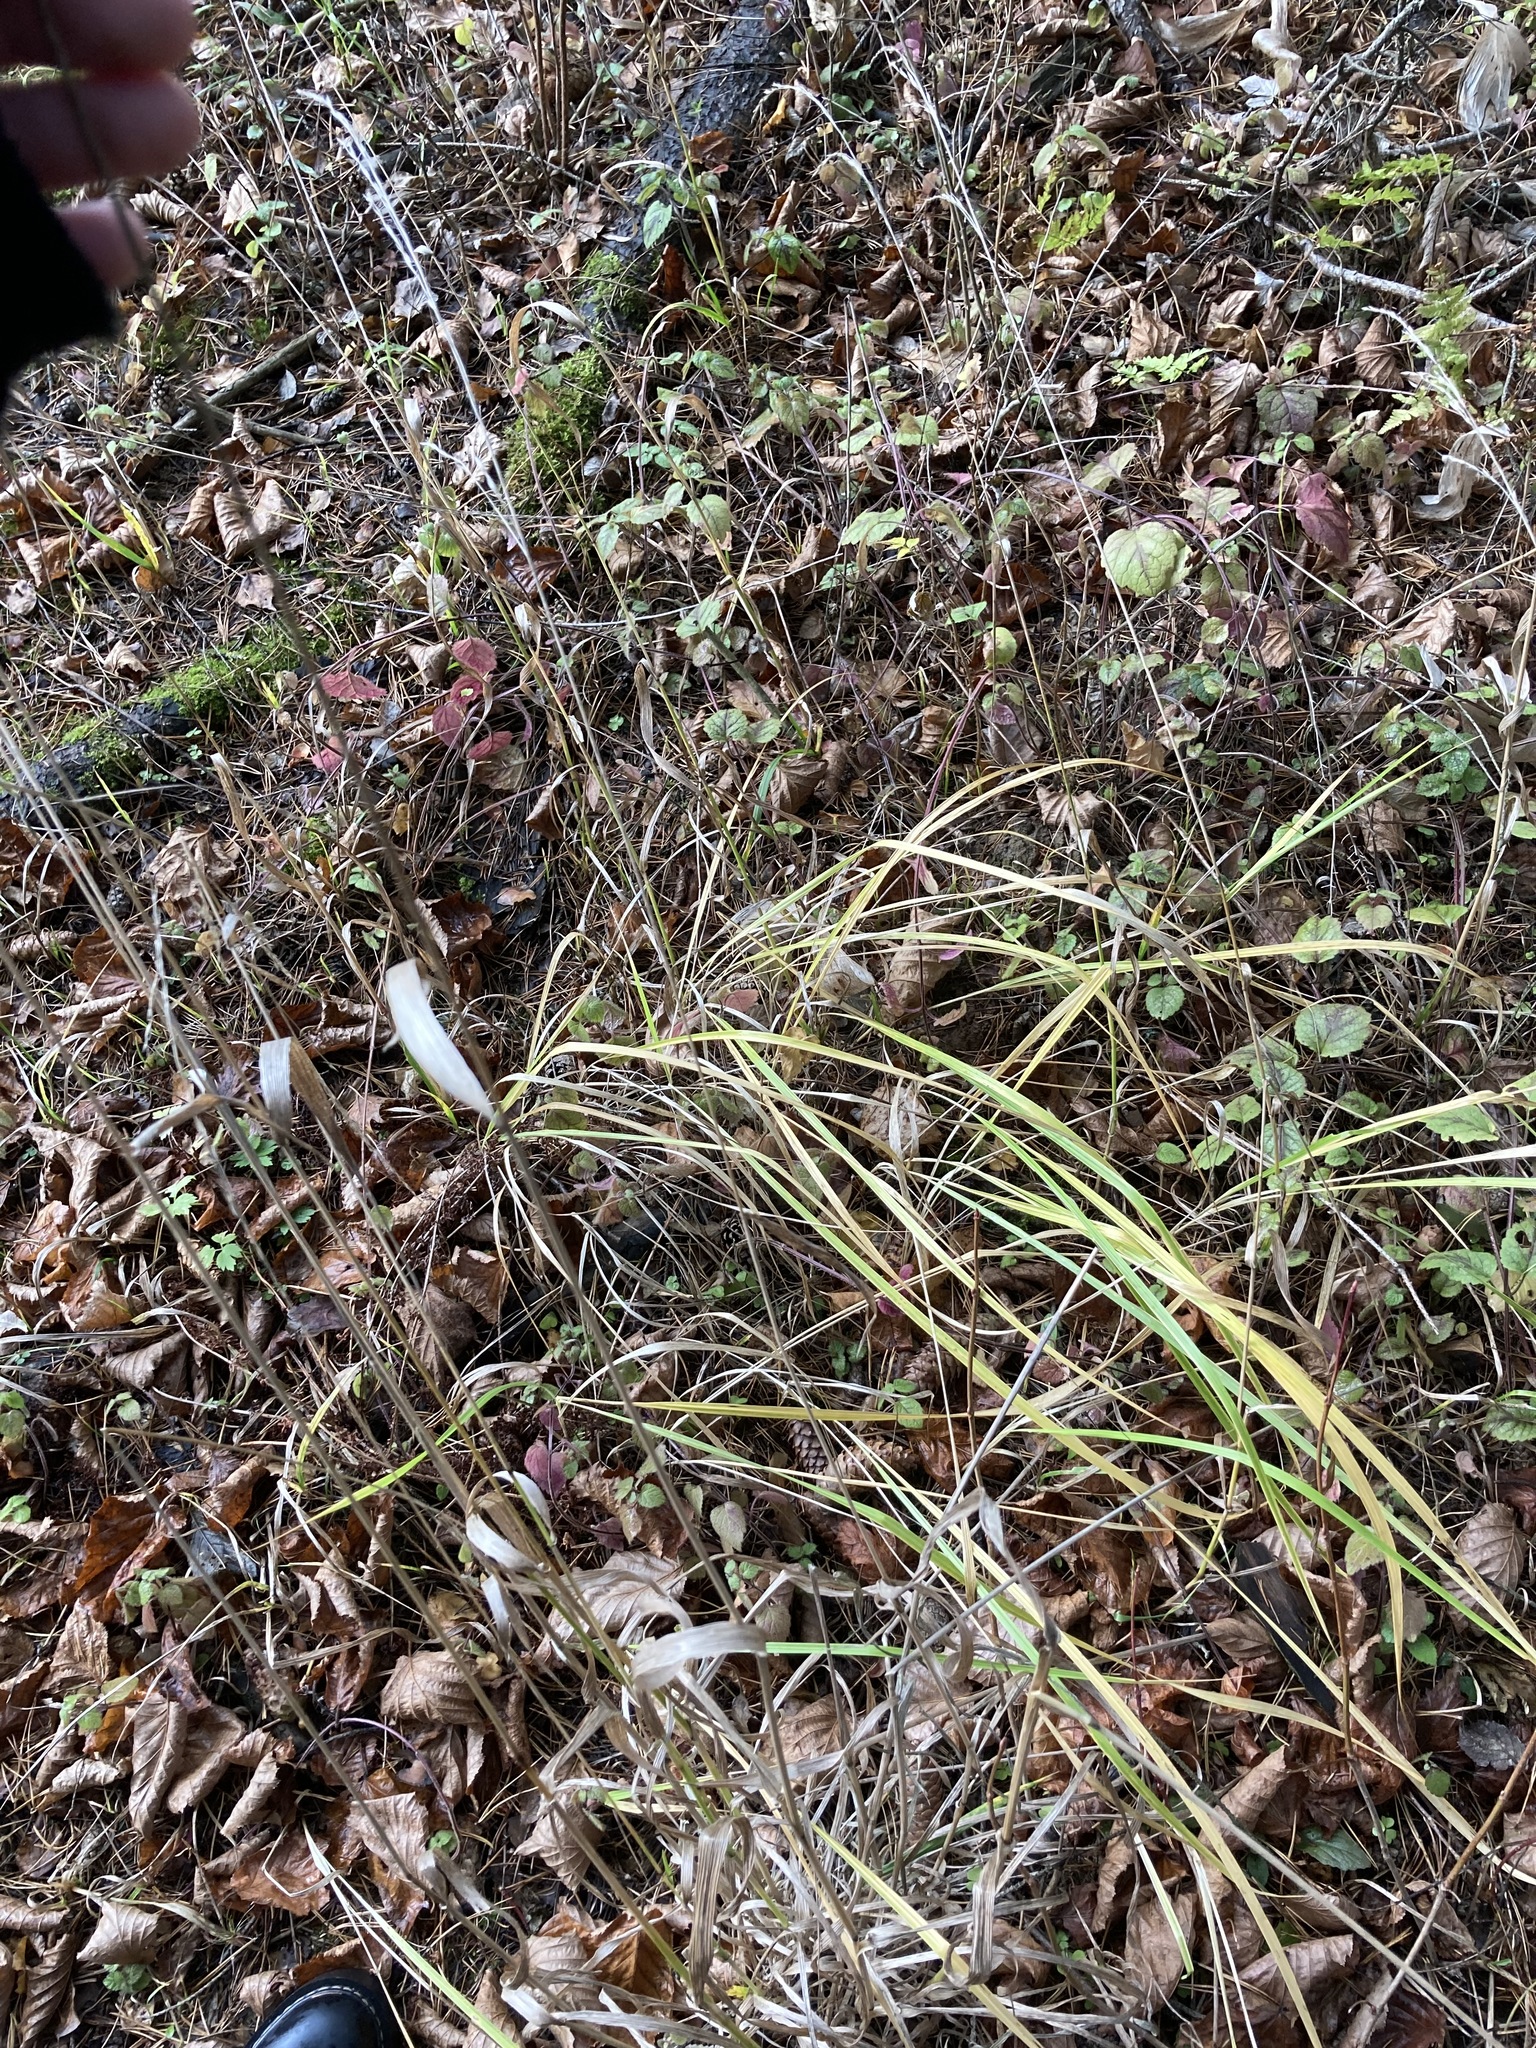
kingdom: Plantae
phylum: Tracheophyta
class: Liliopsida
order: Poales
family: Poaceae
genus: Lolium
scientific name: Lolium giganteum
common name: Giant fescue
